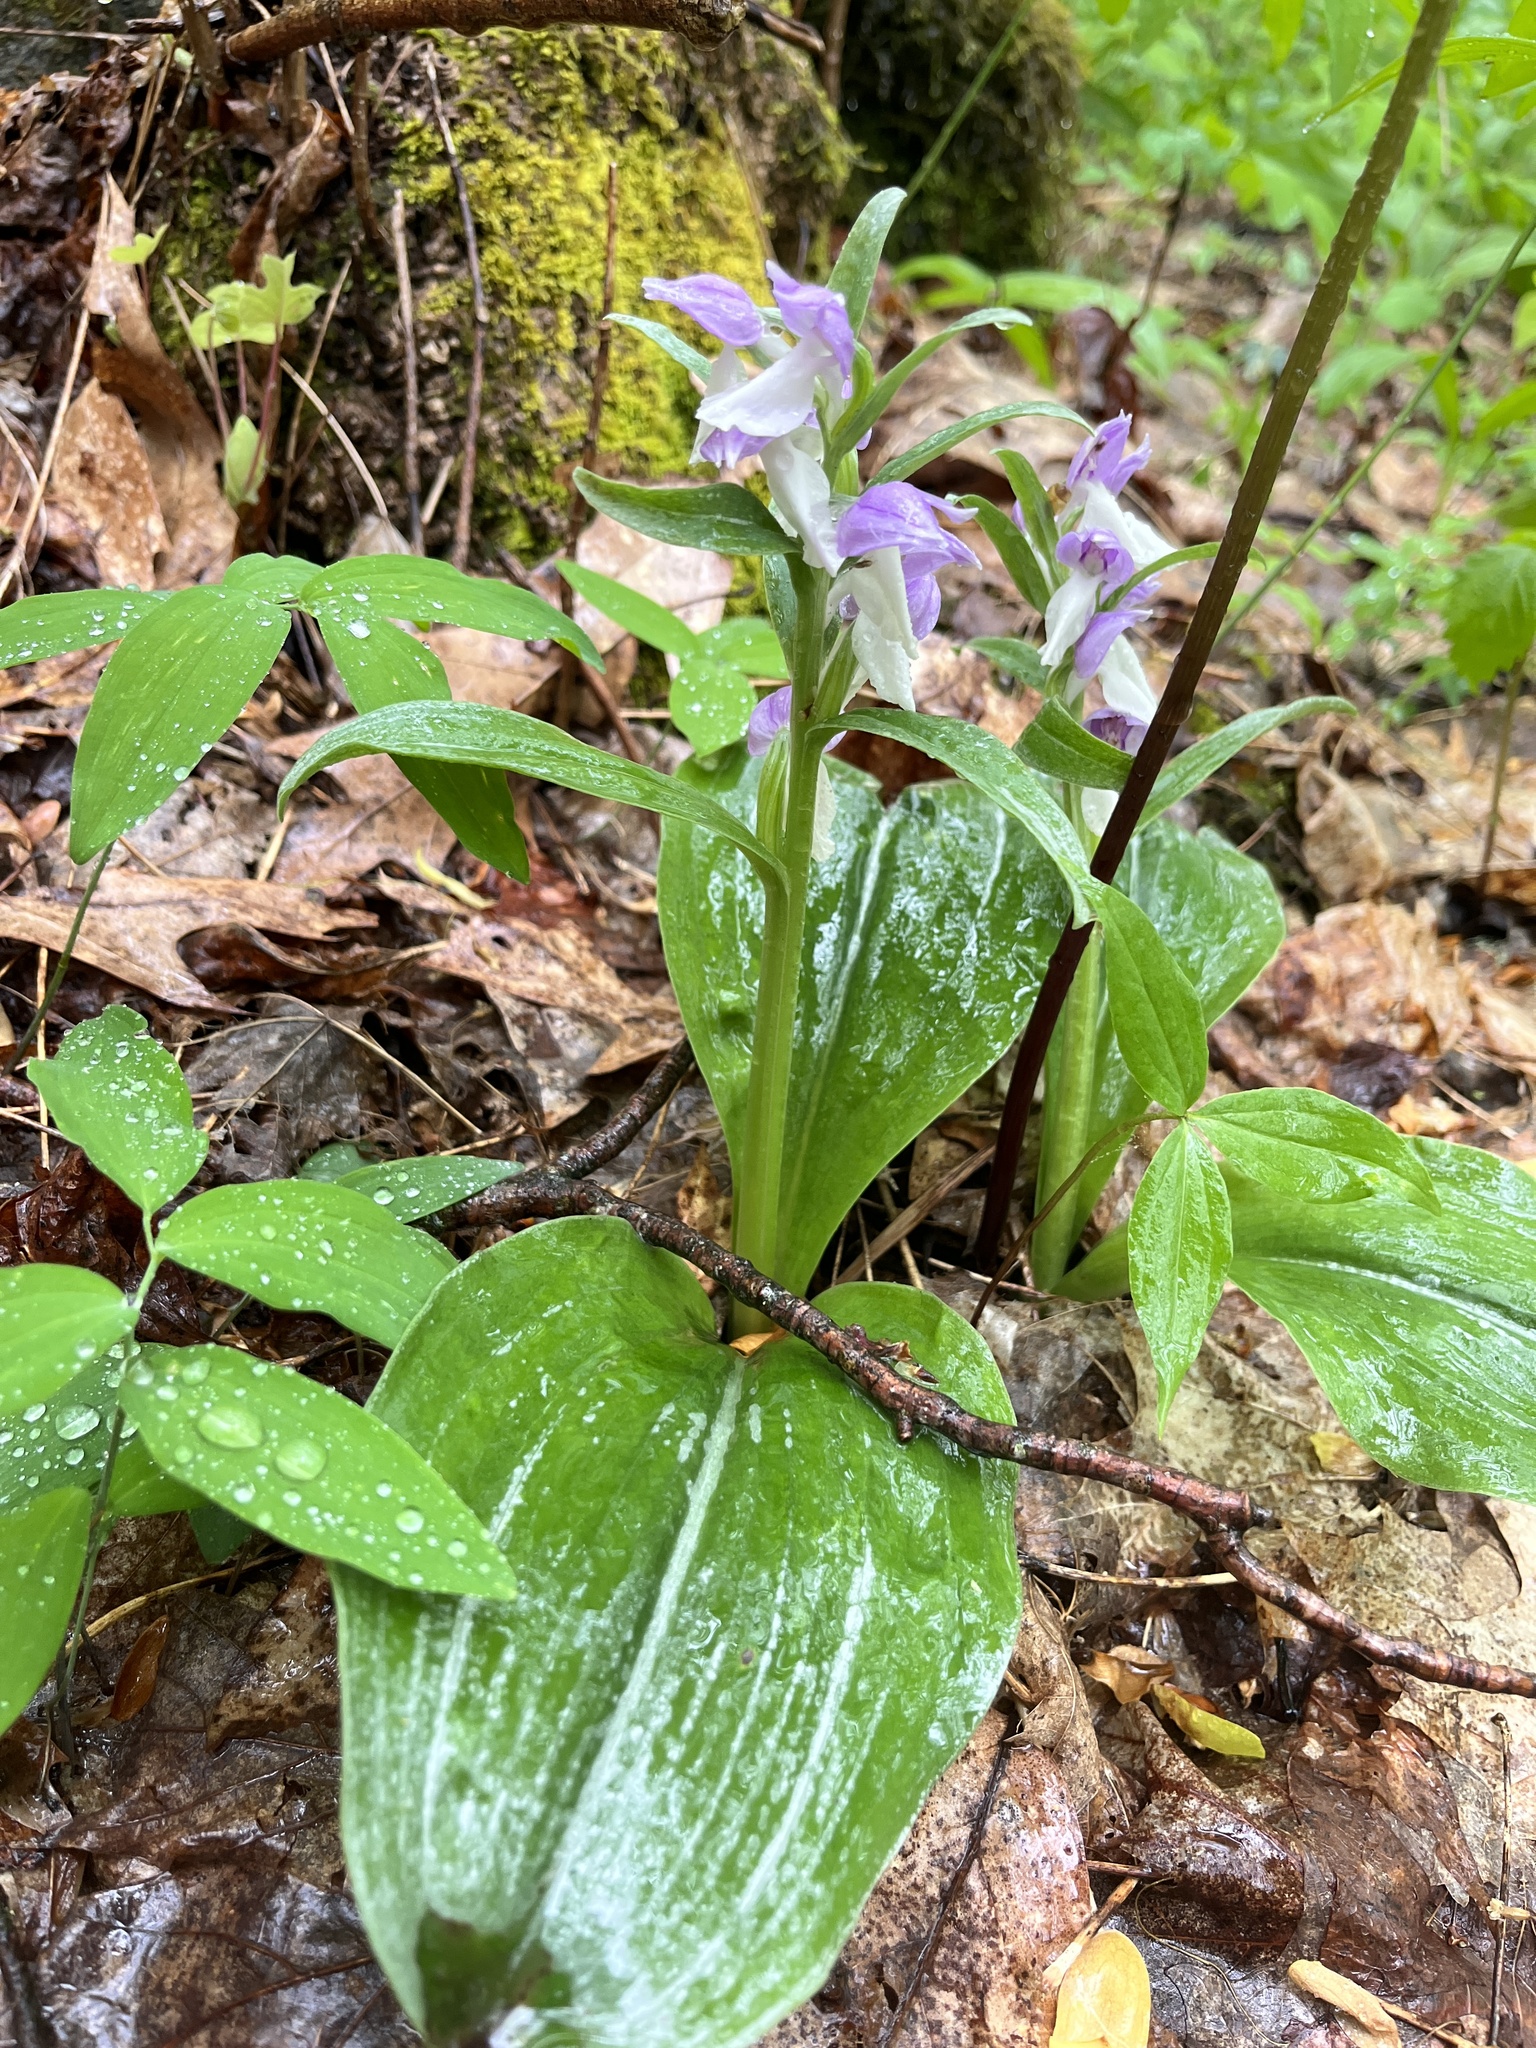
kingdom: Plantae
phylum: Tracheophyta
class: Liliopsida
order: Asparagales
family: Orchidaceae
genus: Galearis
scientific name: Galearis spectabilis
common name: Purple-hooded orchis
